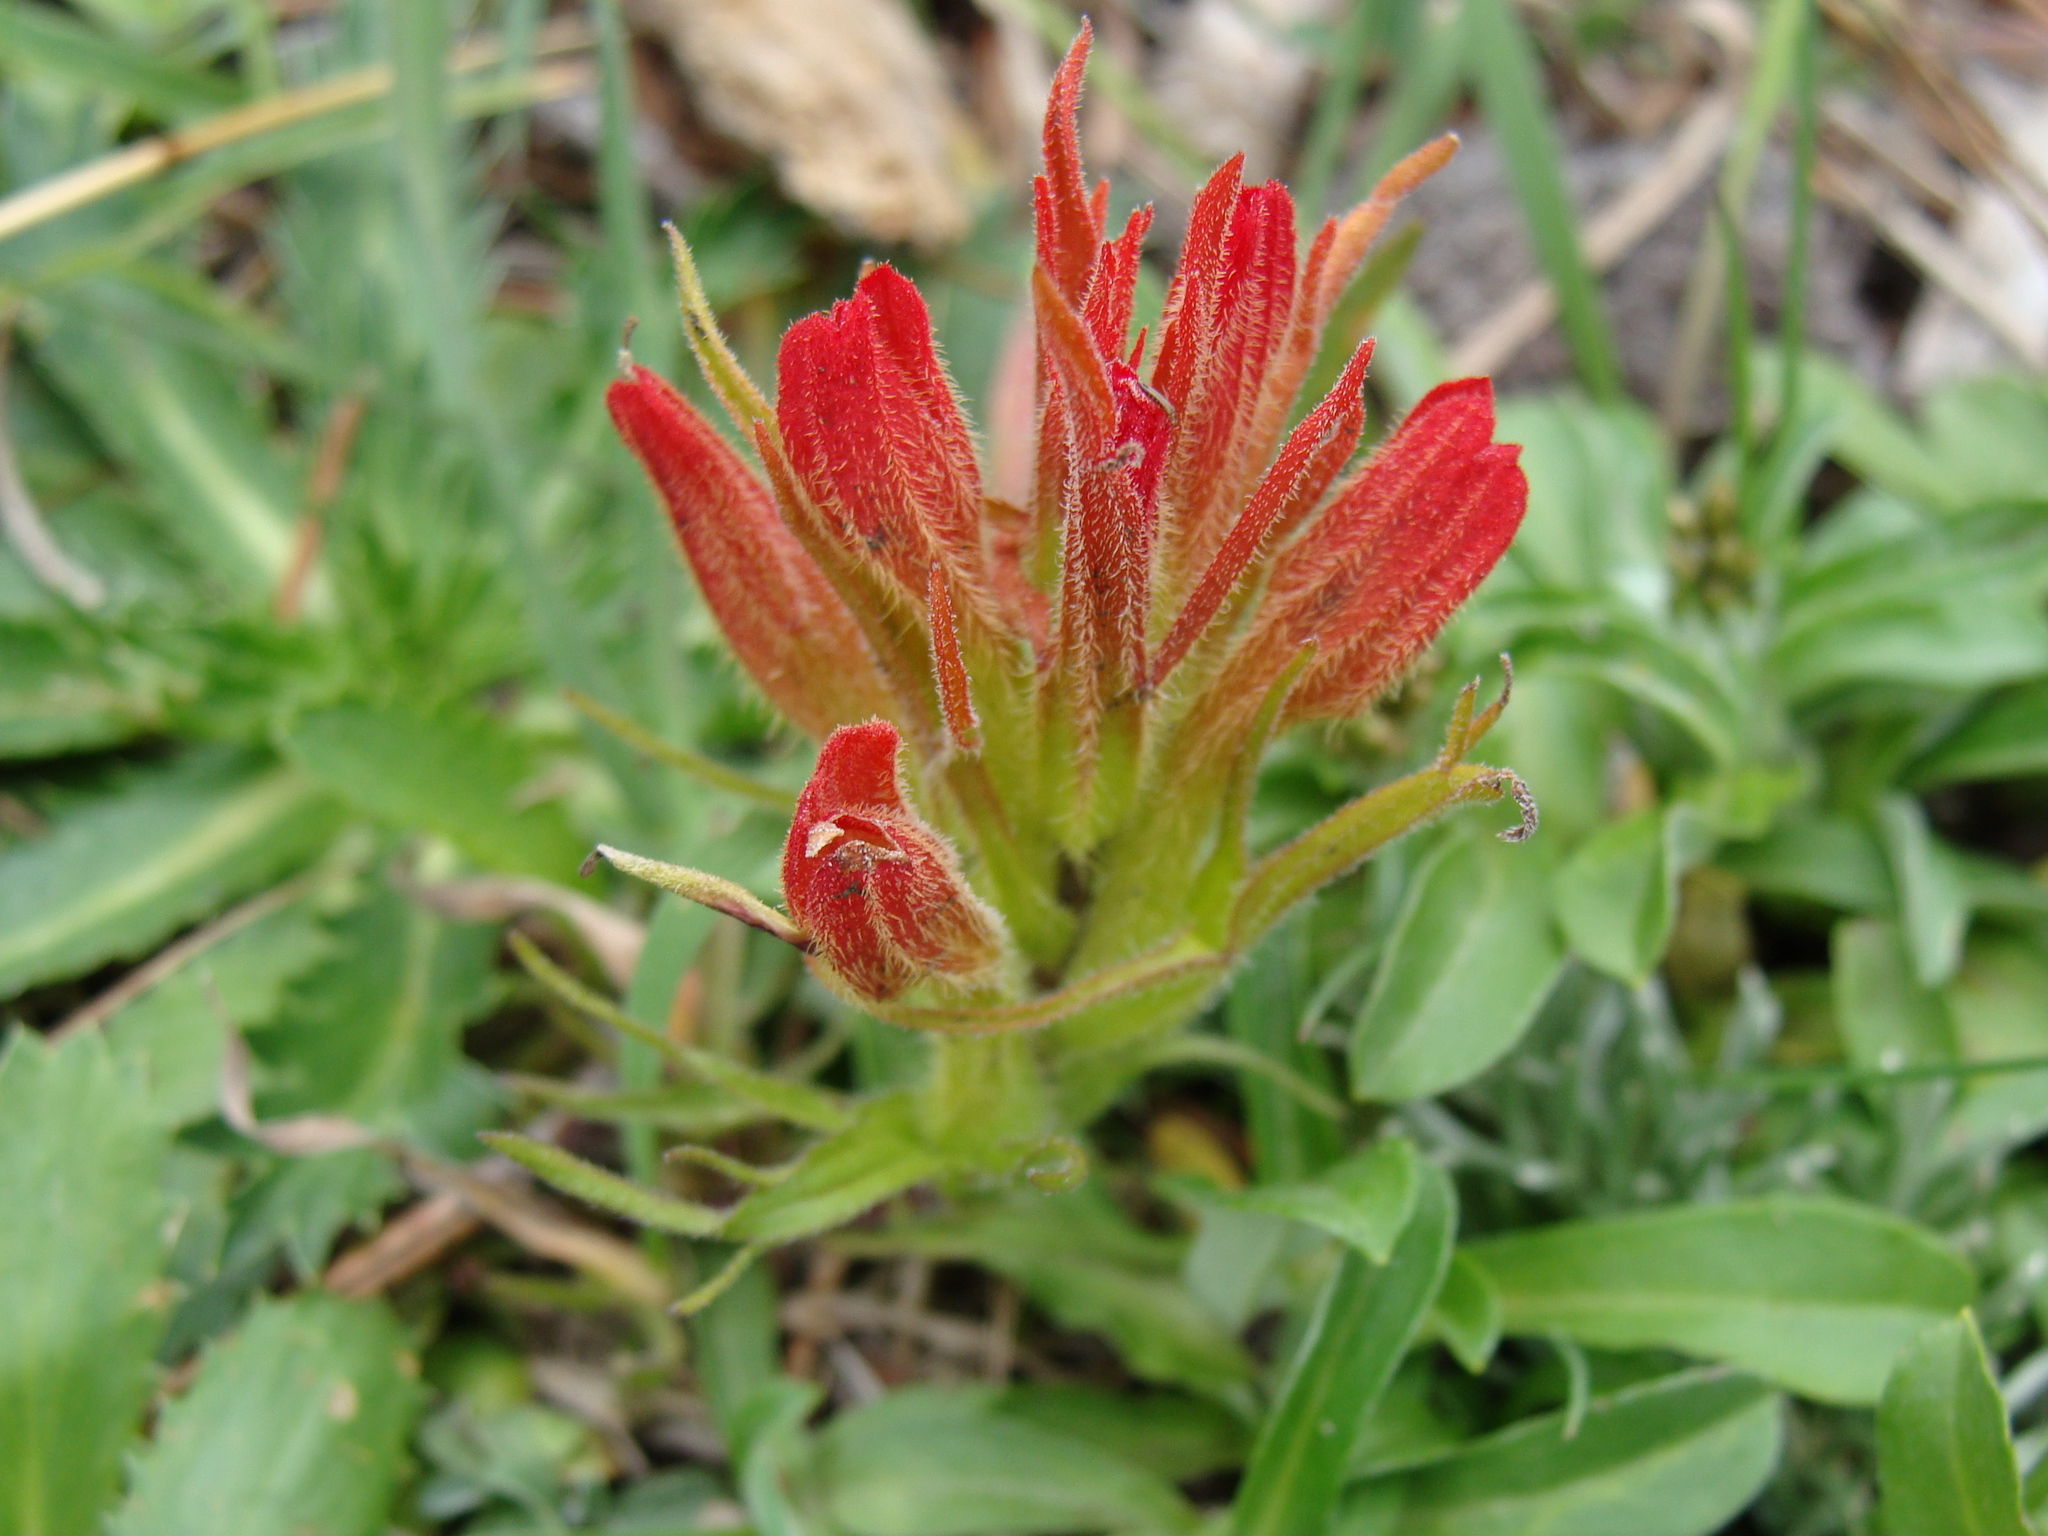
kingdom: Plantae
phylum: Tracheophyta
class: Magnoliopsida
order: Lamiales
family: Orobanchaceae
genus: Castilleja
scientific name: Castilleja moranensis
